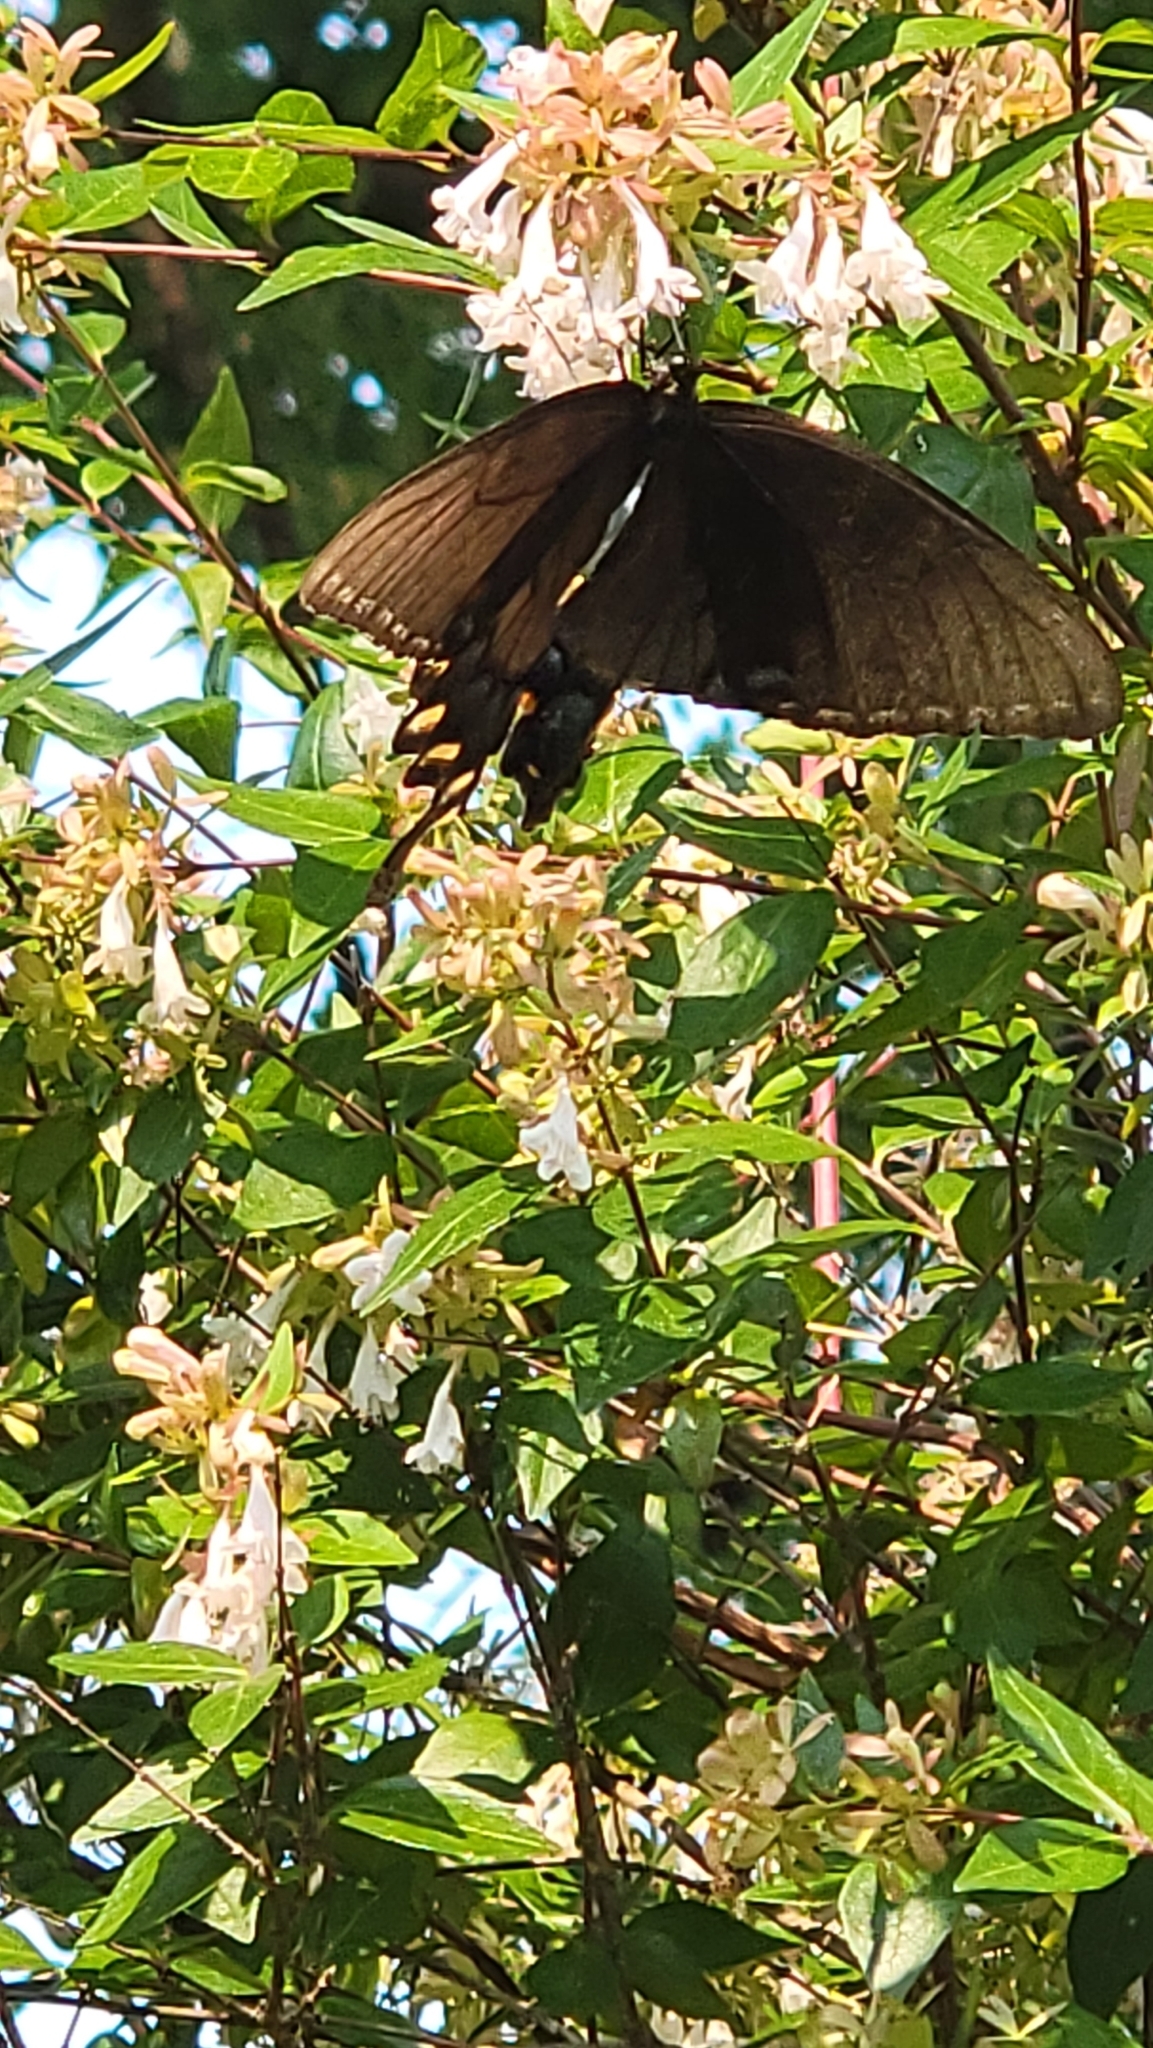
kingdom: Animalia
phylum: Arthropoda
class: Insecta
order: Lepidoptera
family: Papilionidae
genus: Papilio
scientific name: Papilio glaucus
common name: Tiger swallowtail
